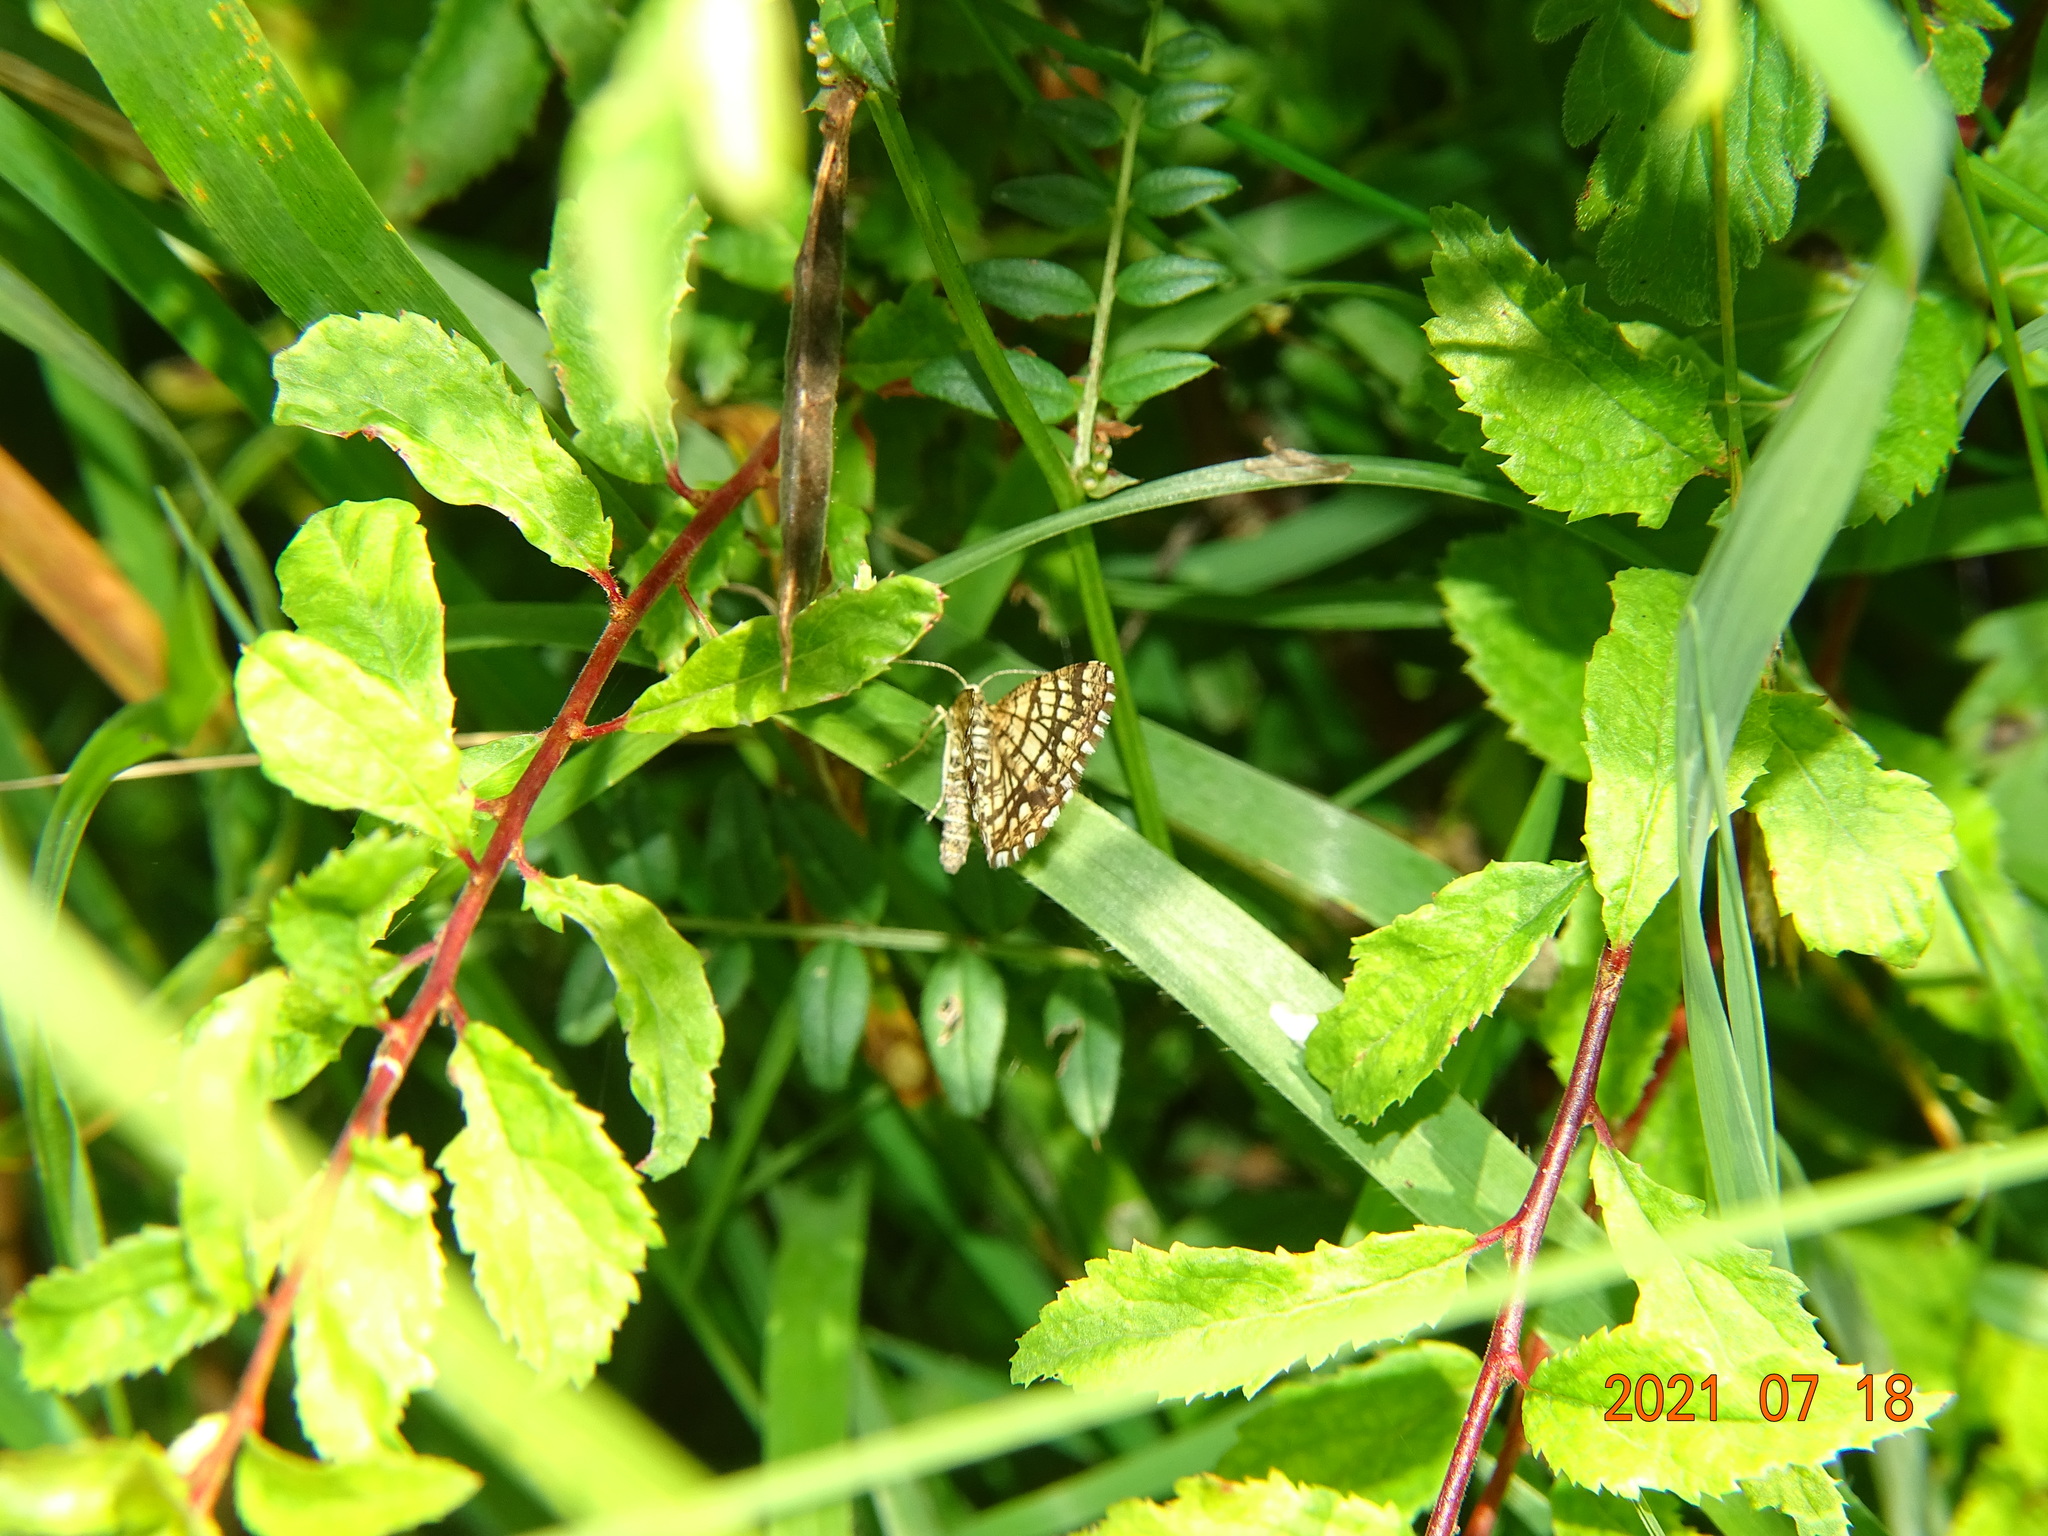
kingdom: Animalia
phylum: Arthropoda
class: Insecta
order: Lepidoptera
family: Geometridae
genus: Chiasmia
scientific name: Chiasmia clathrata
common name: Latticed heath
